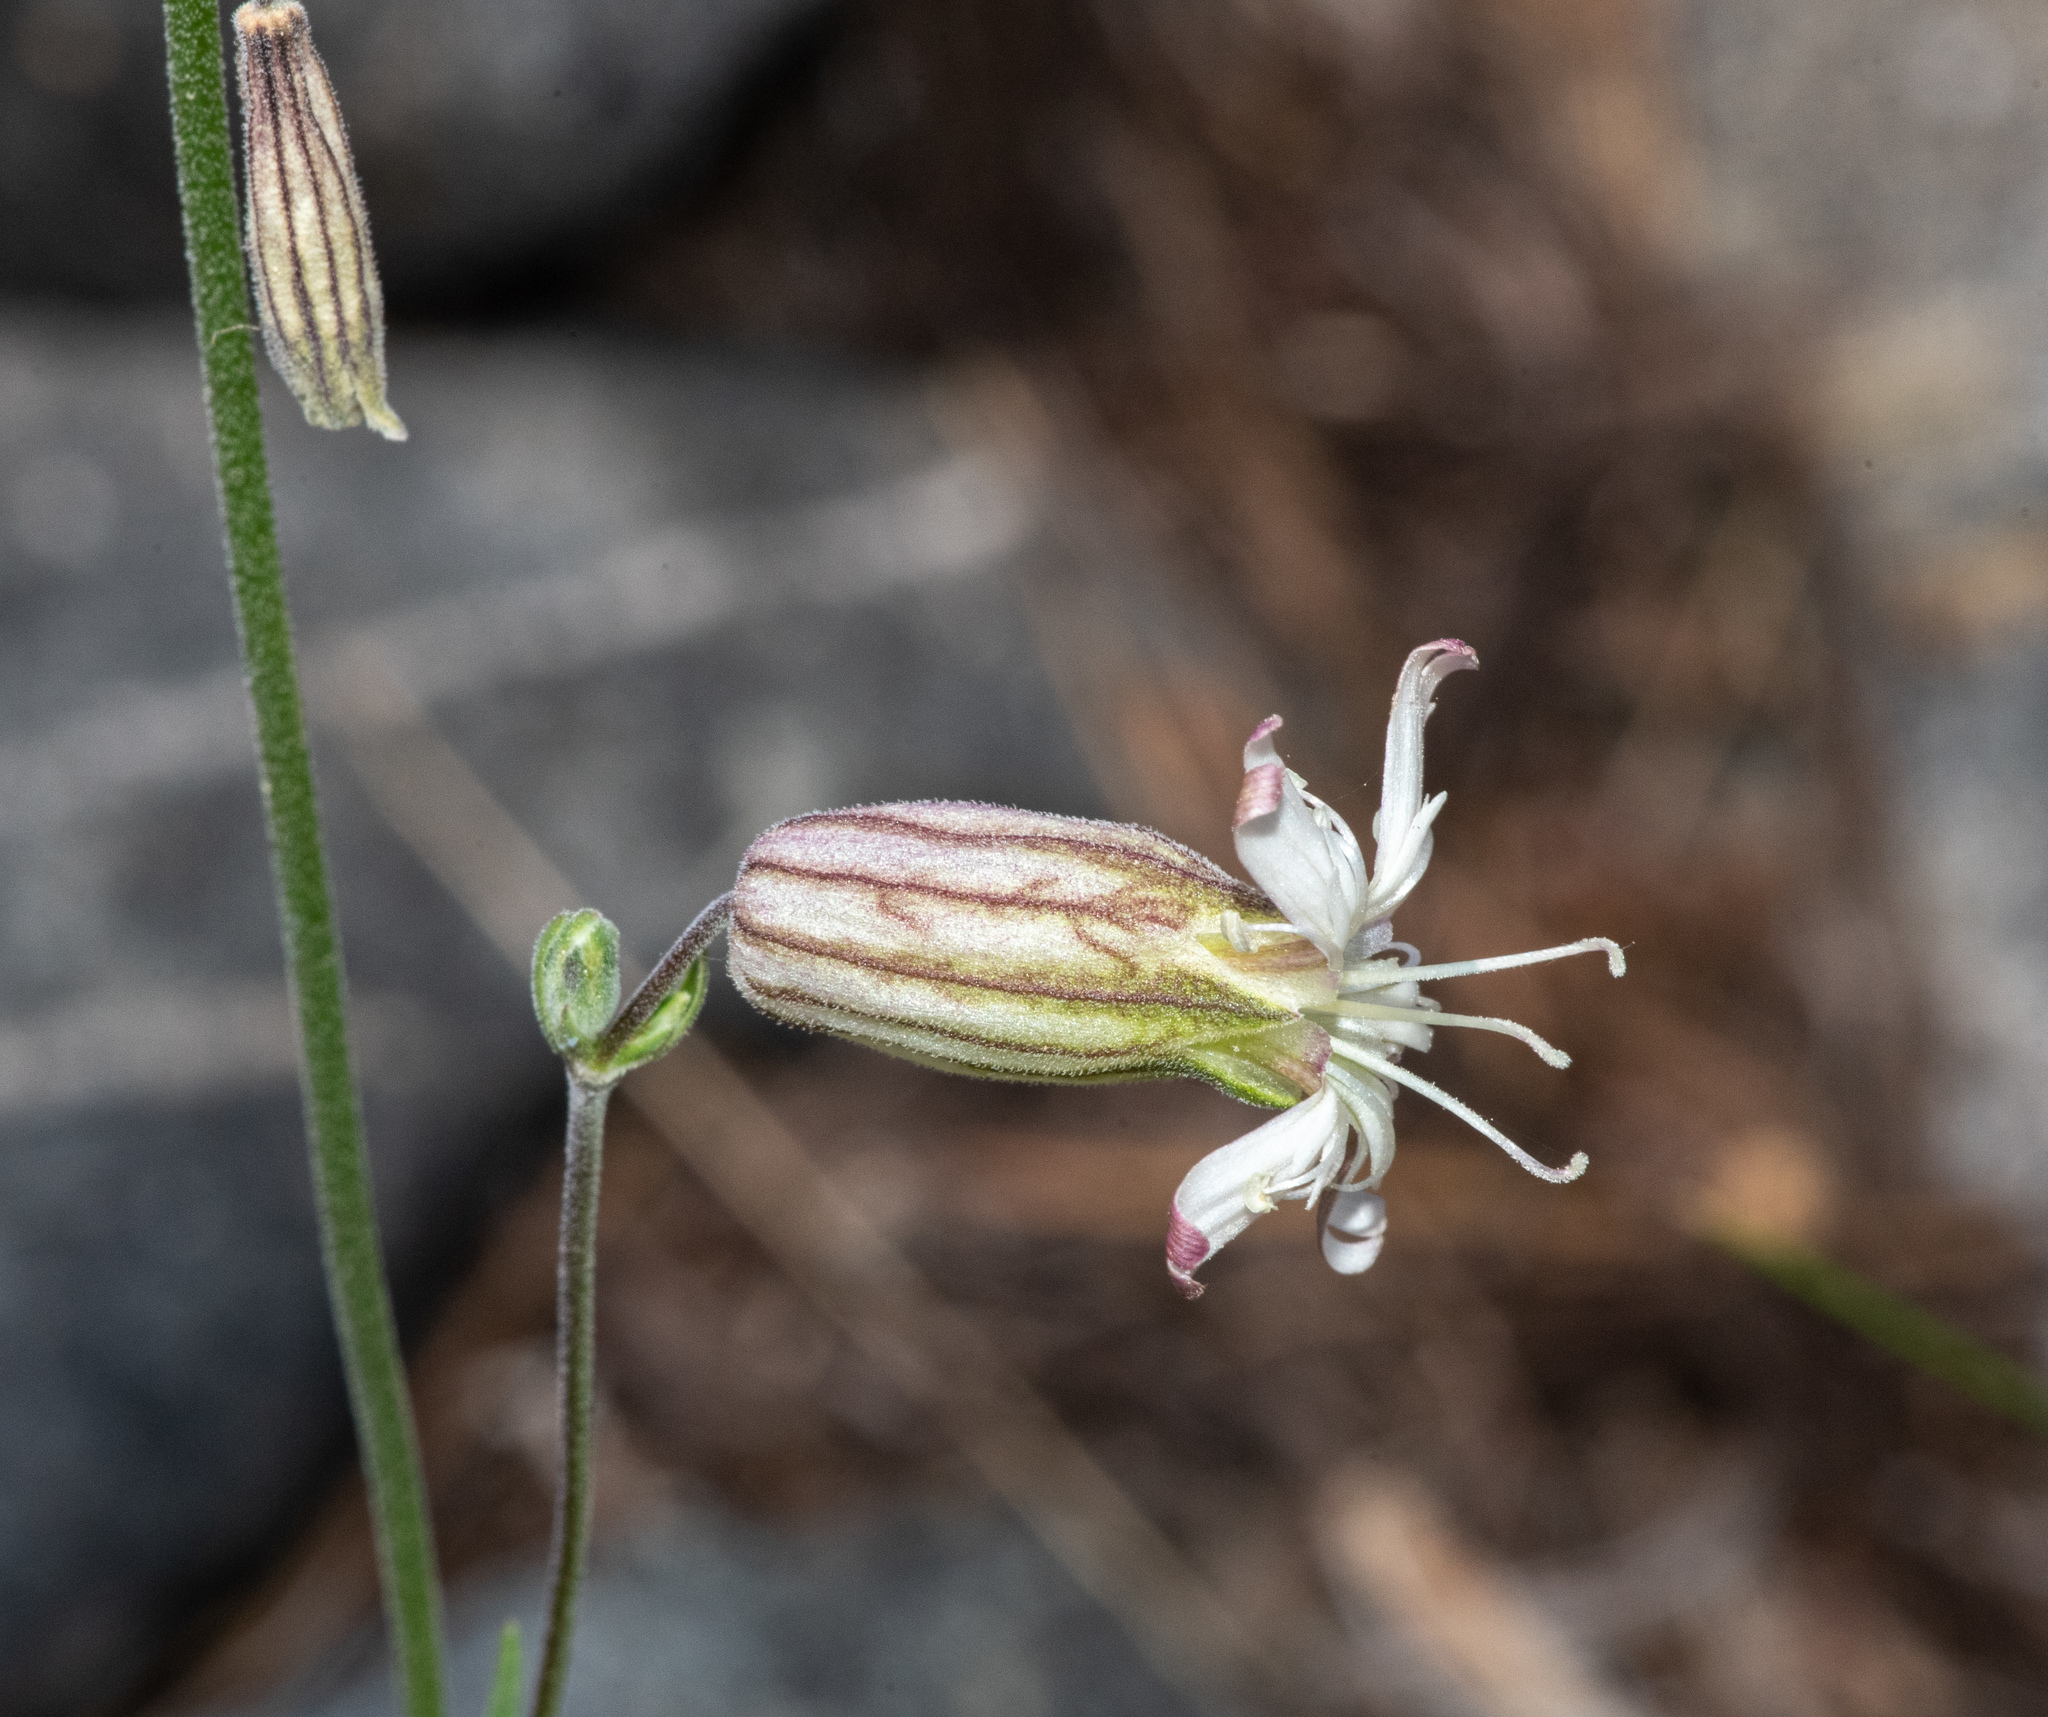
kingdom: Plantae
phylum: Tracheophyta
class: Magnoliopsida
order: Caryophyllales
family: Caryophyllaceae
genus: Silene
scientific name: Silene douglasii
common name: Douglas's catchfly
